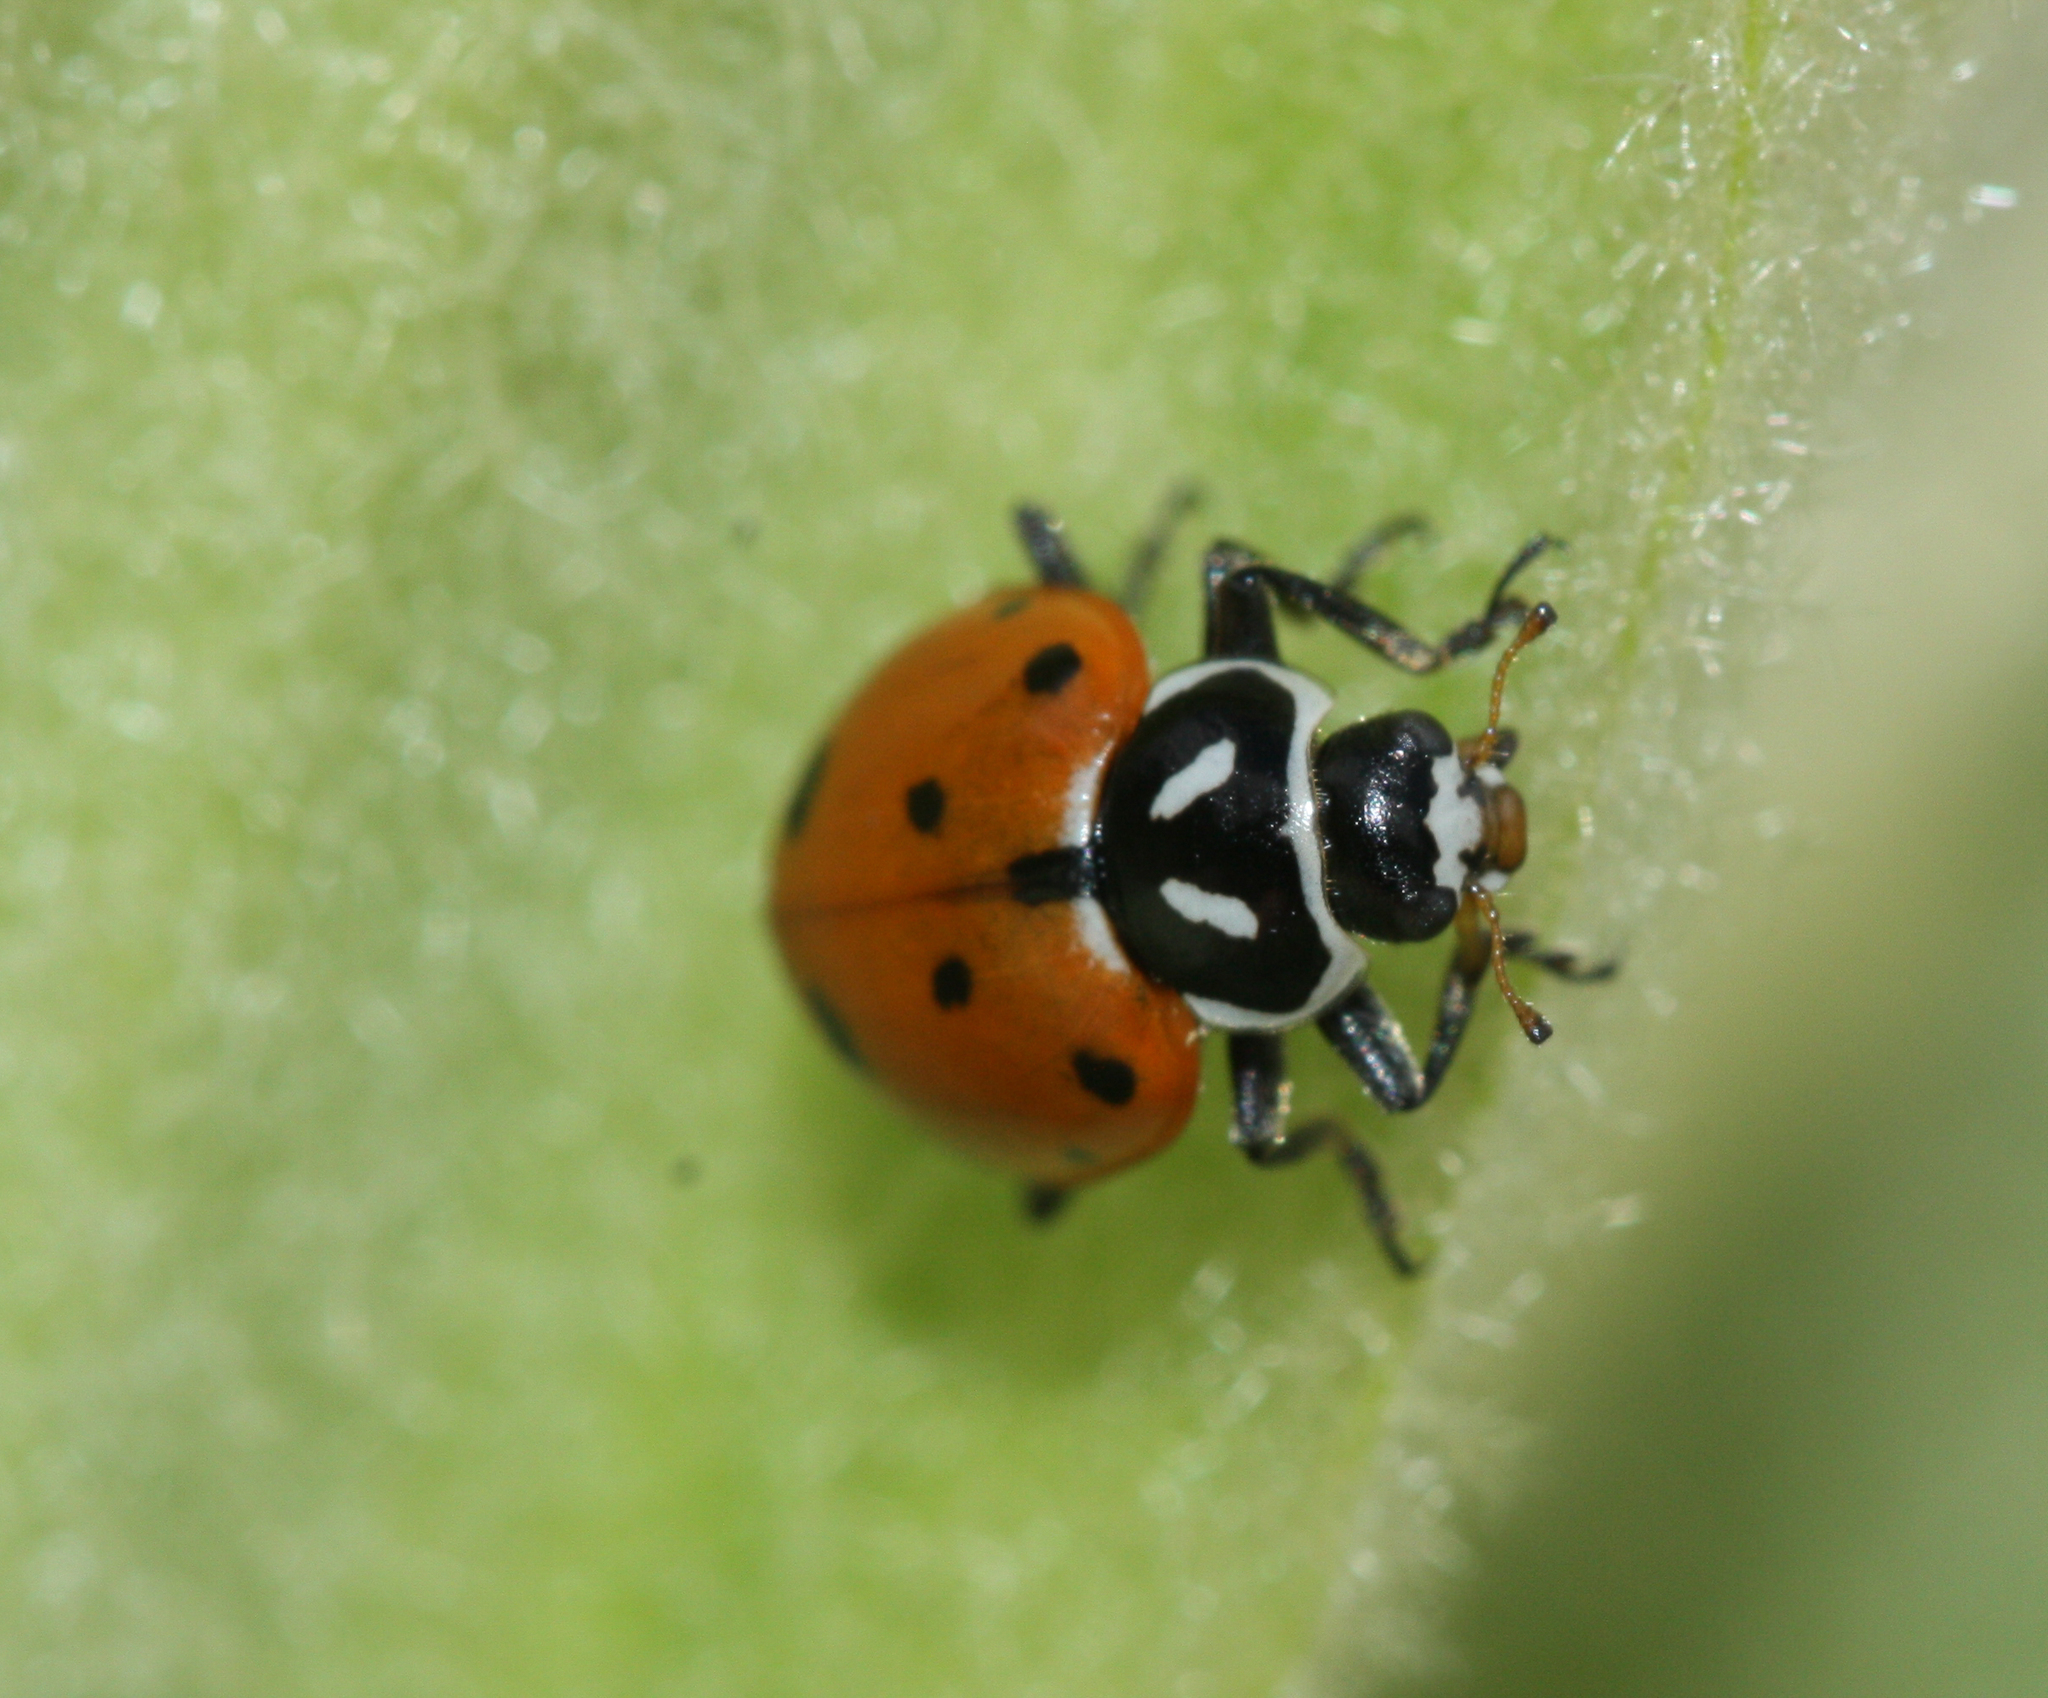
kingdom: Animalia
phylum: Arthropoda
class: Insecta
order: Coleoptera
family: Coccinellidae
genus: Hippodamia
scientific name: Hippodamia convergens
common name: Convergent lady beetle
